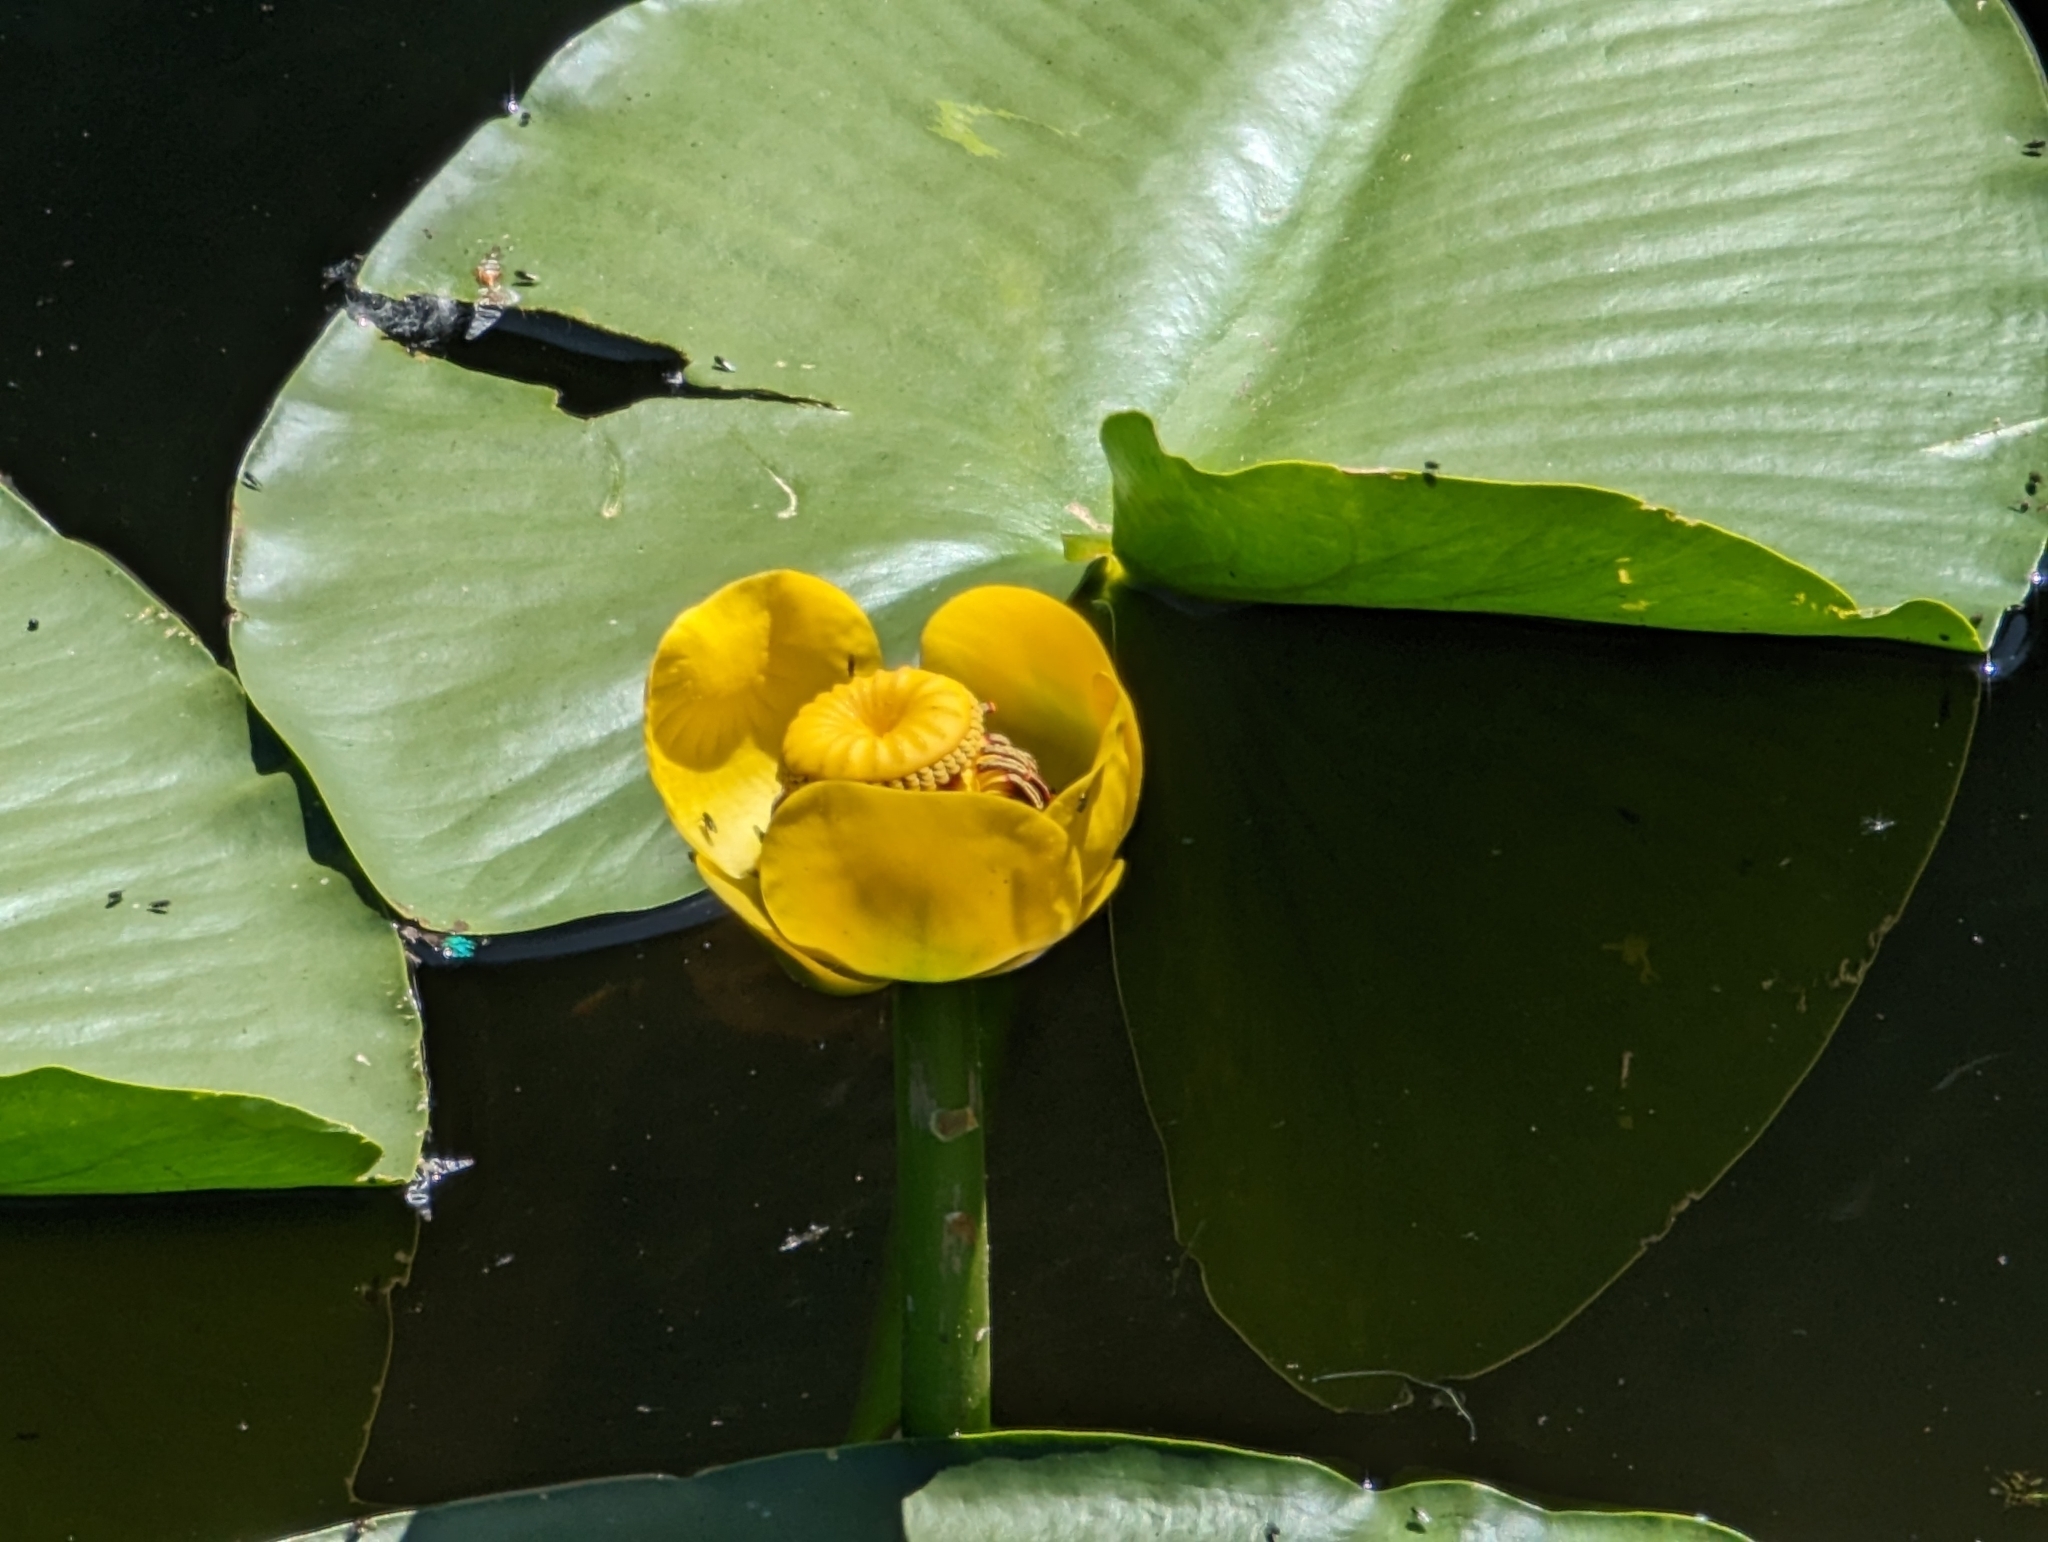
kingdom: Plantae
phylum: Tracheophyta
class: Magnoliopsida
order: Nymphaeales
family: Nymphaeaceae
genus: Nuphar
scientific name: Nuphar polysepala
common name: Rocky mountain cow-lily
